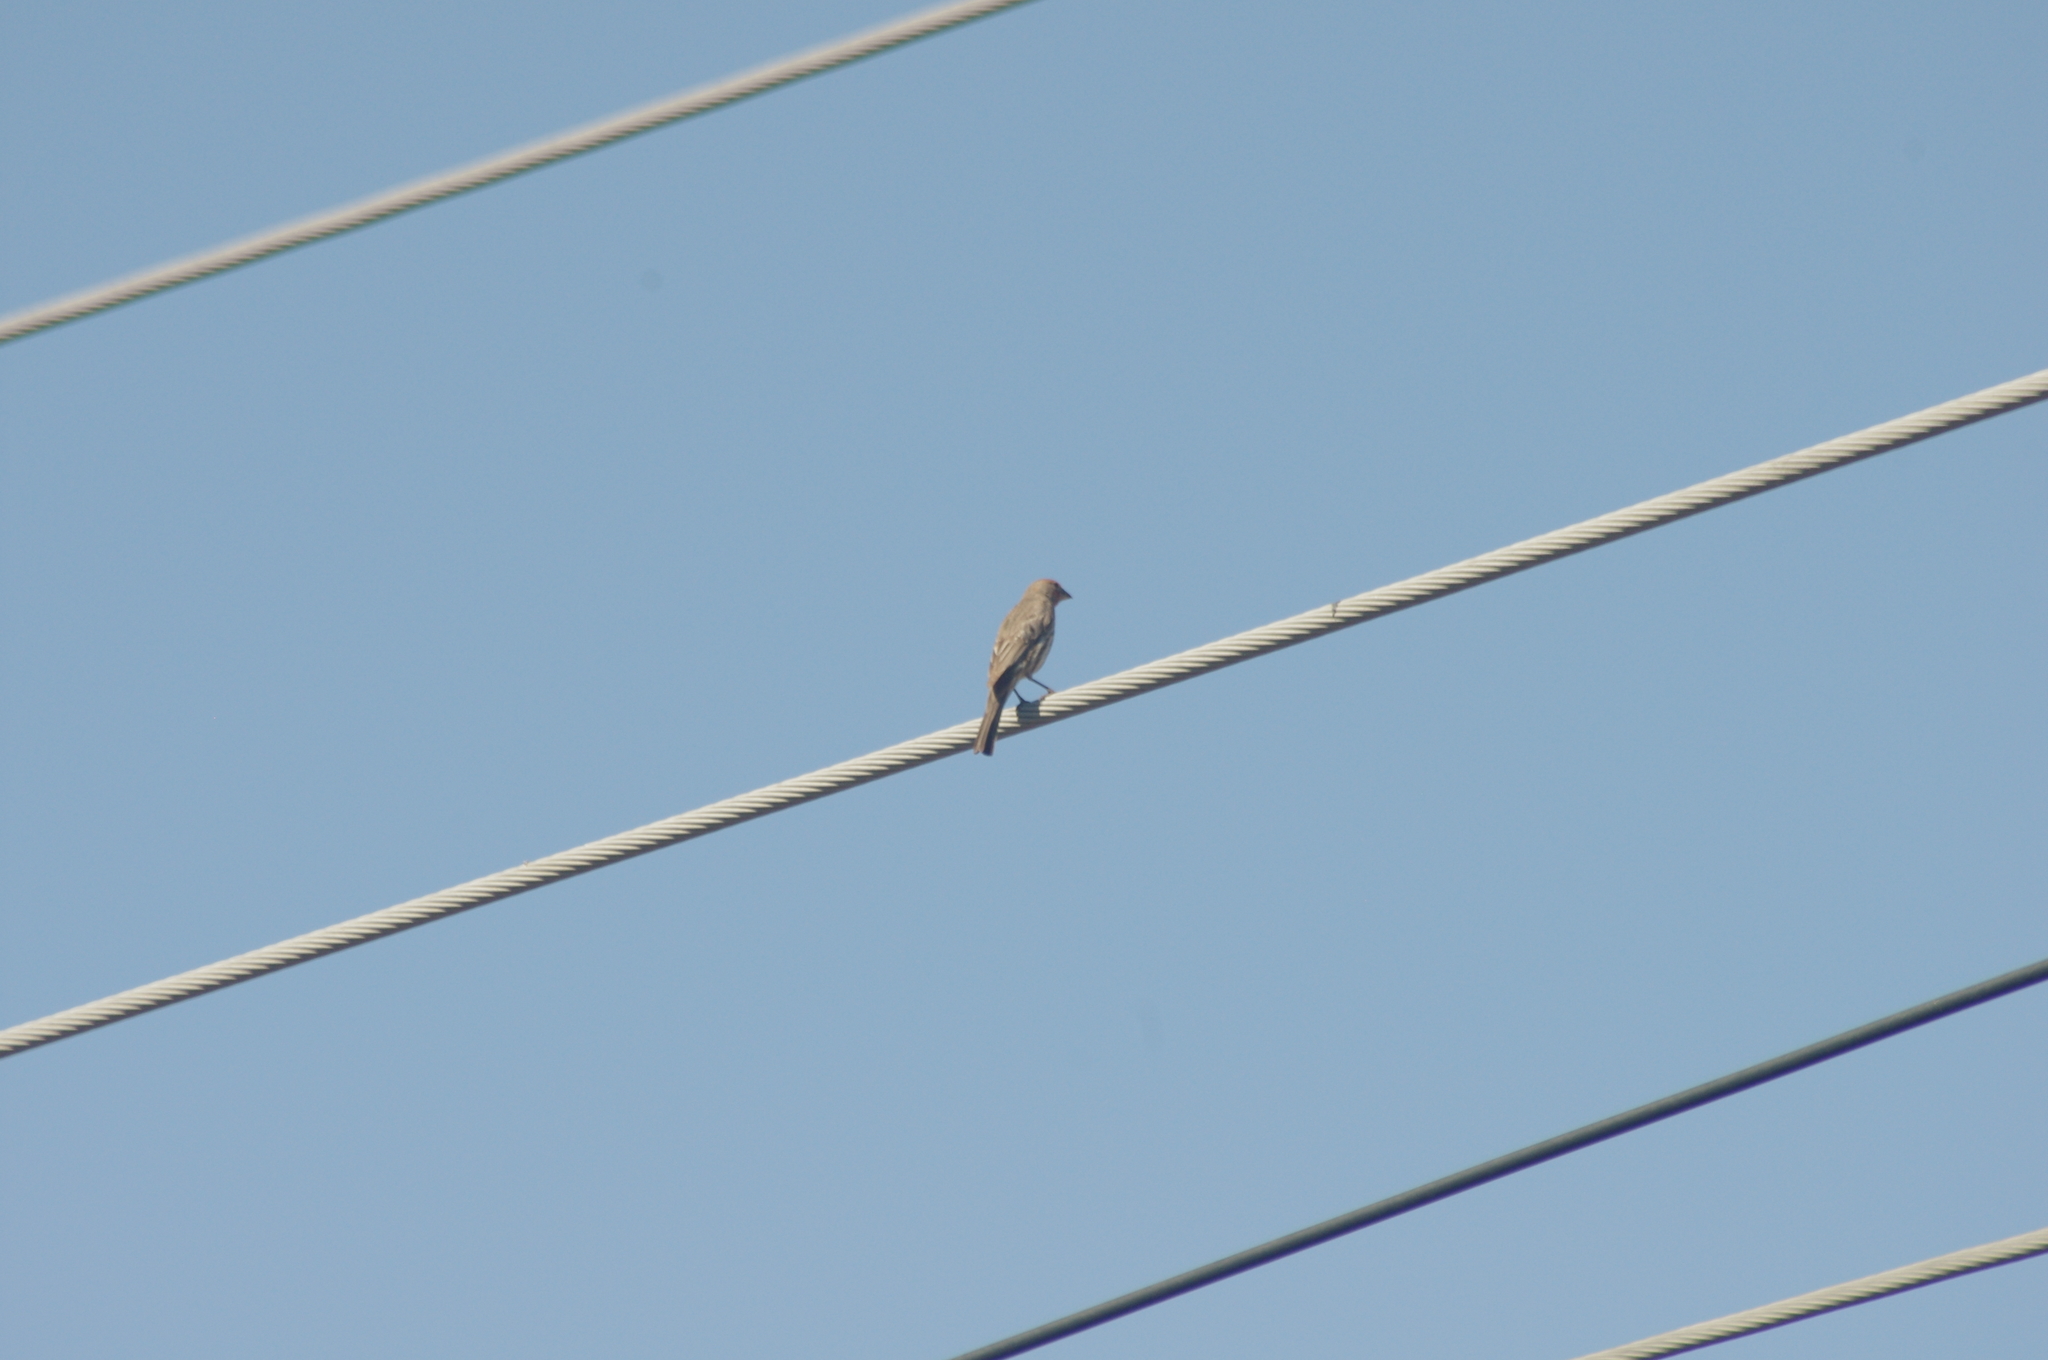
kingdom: Animalia
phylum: Chordata
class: Aves
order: Passeriformes
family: Fringillidae
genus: Haemorhous
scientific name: Haemorhous mexicanus
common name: House finch
